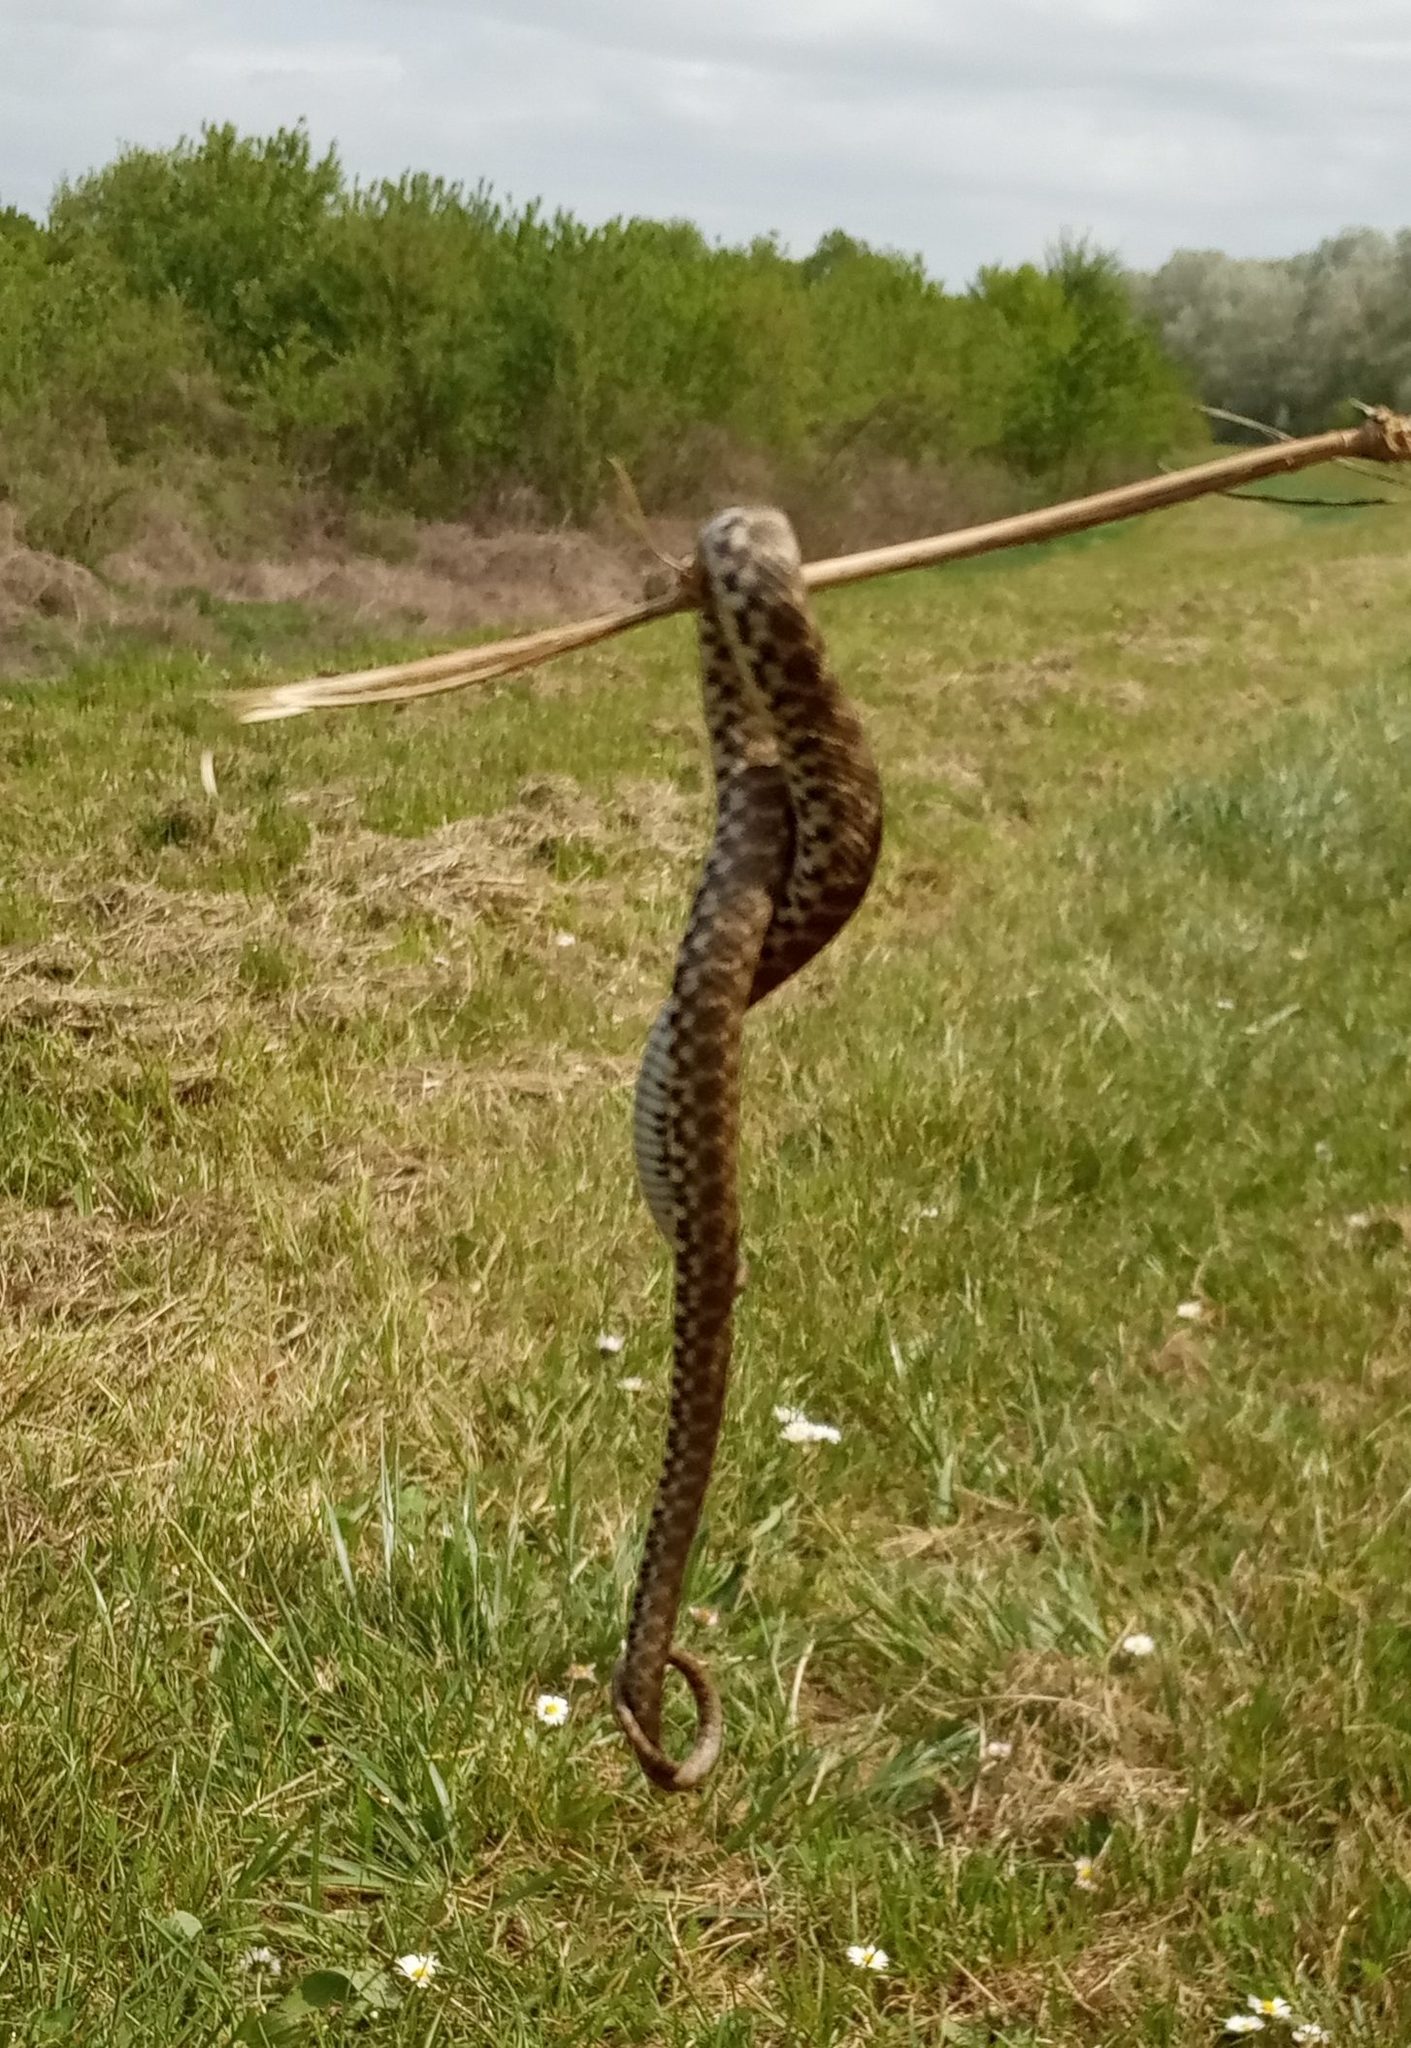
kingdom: Animalia
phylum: Chordata
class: Squamata
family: Colubridae
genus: Natrix
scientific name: Natrix tessellata
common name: Dice snake
